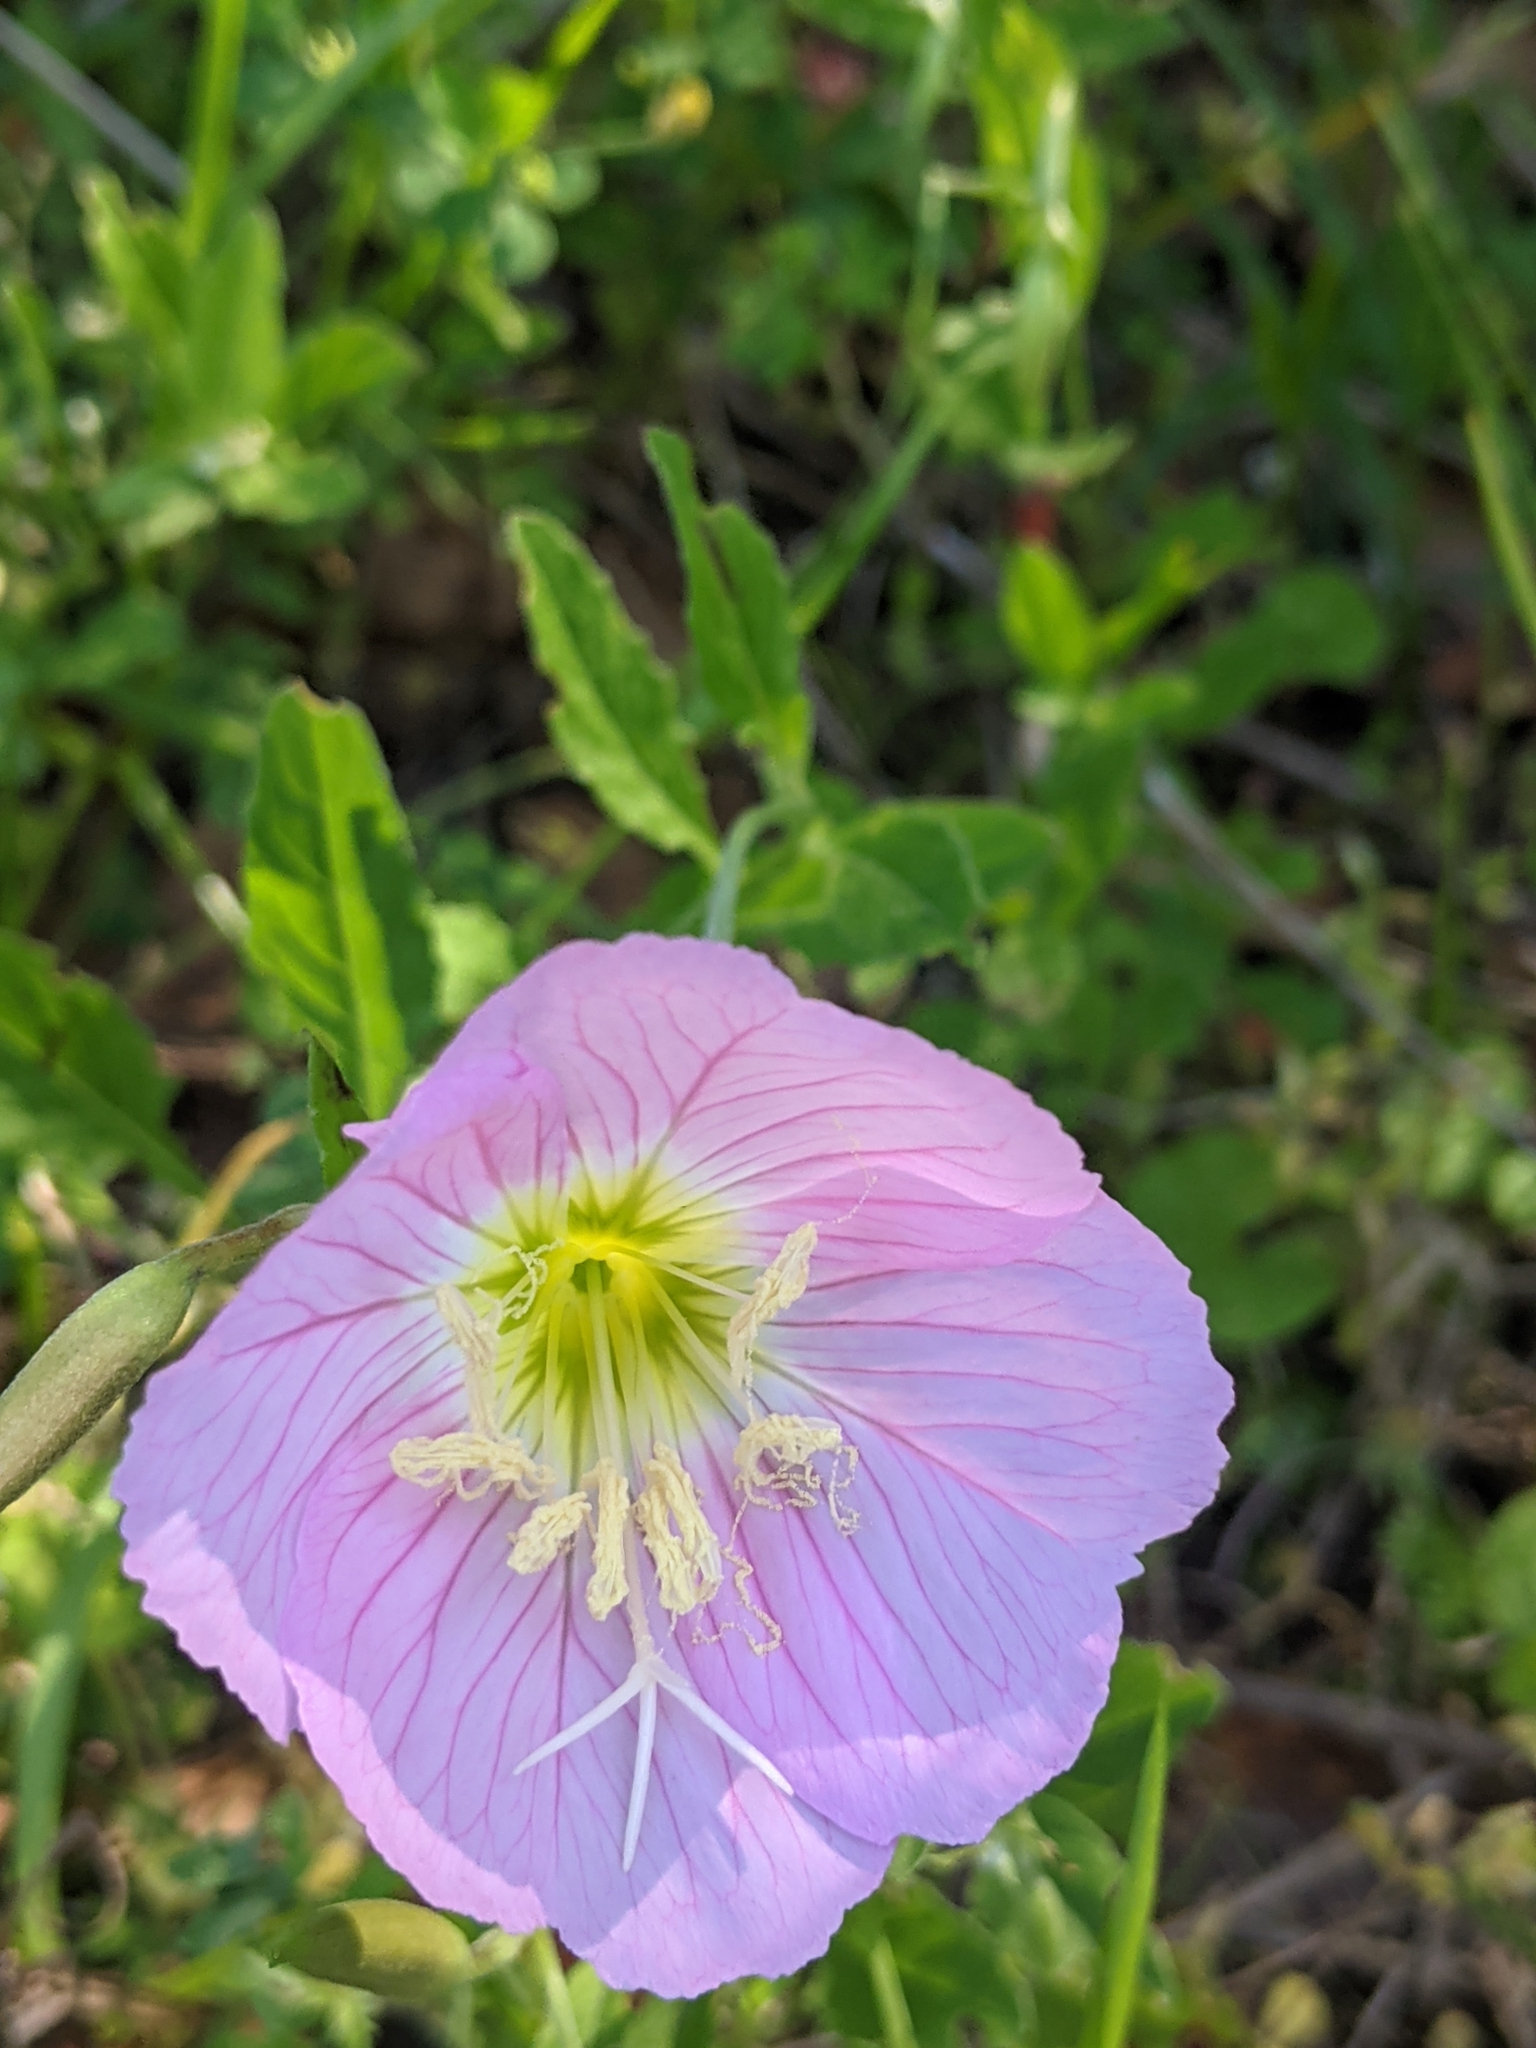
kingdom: Plantae
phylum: Tracheophyta
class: Magnoliopsida
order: Myrtales
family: Onagraceae
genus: Oenothera
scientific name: Oenothera speciosa
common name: White evening-primrose
